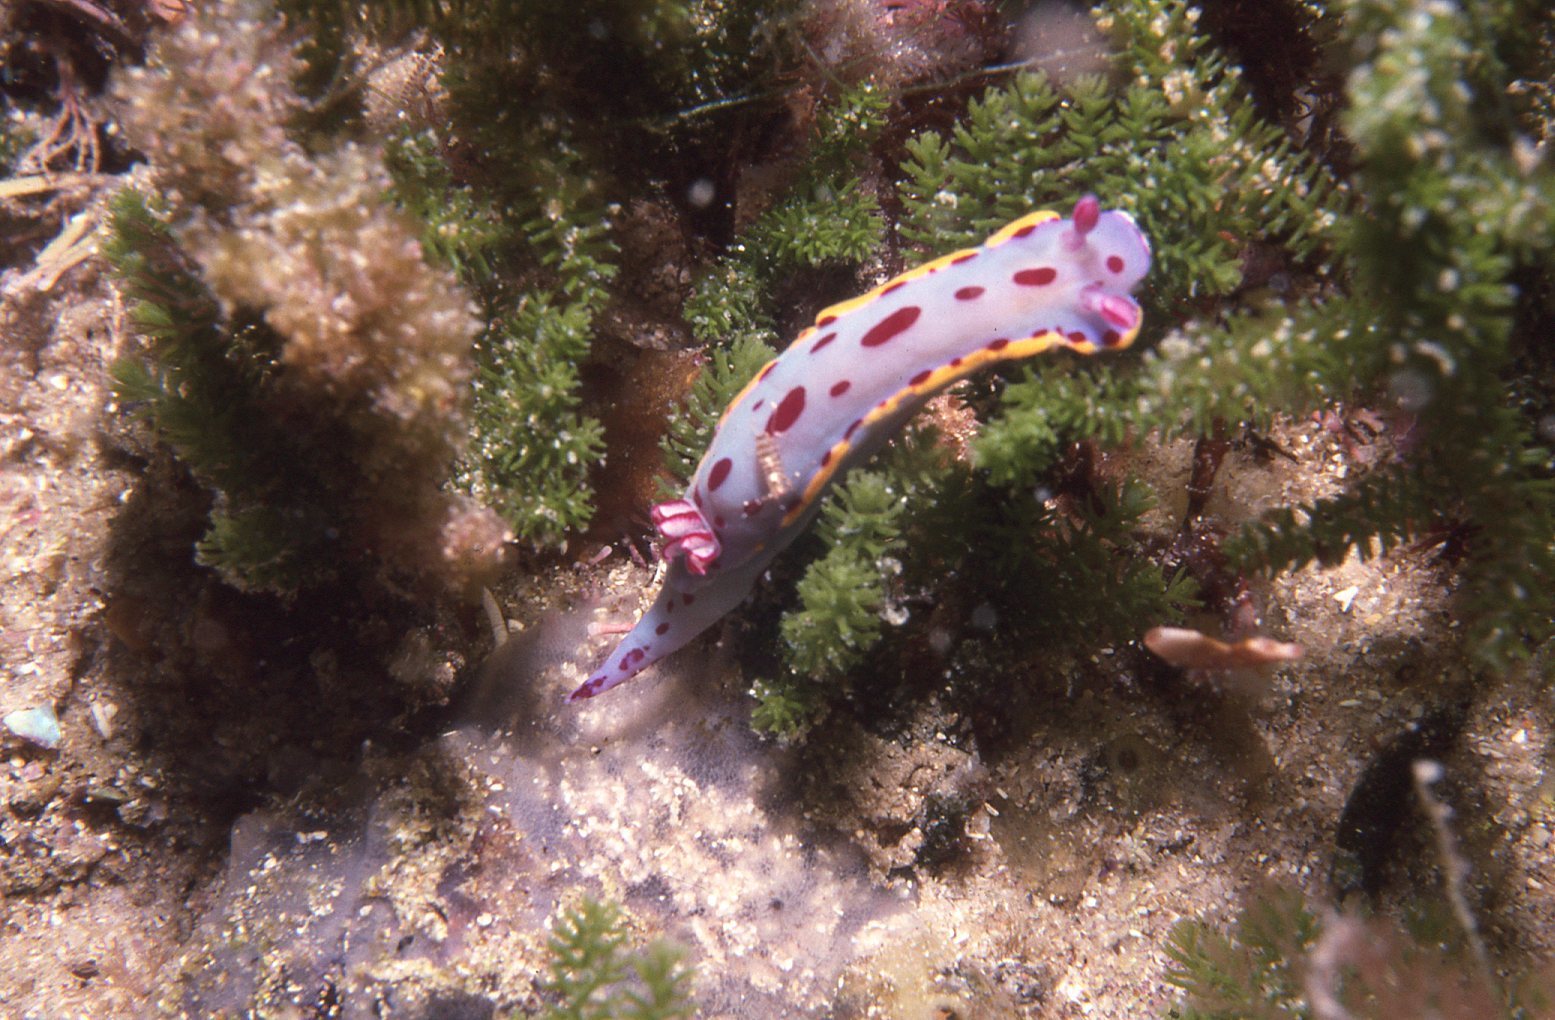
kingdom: Animalia
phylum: Mollusca
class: Gastropoda
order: Nudibranchia
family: Chromodorididae
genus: Hypselodoris
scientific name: Hypselodoris bennetti
